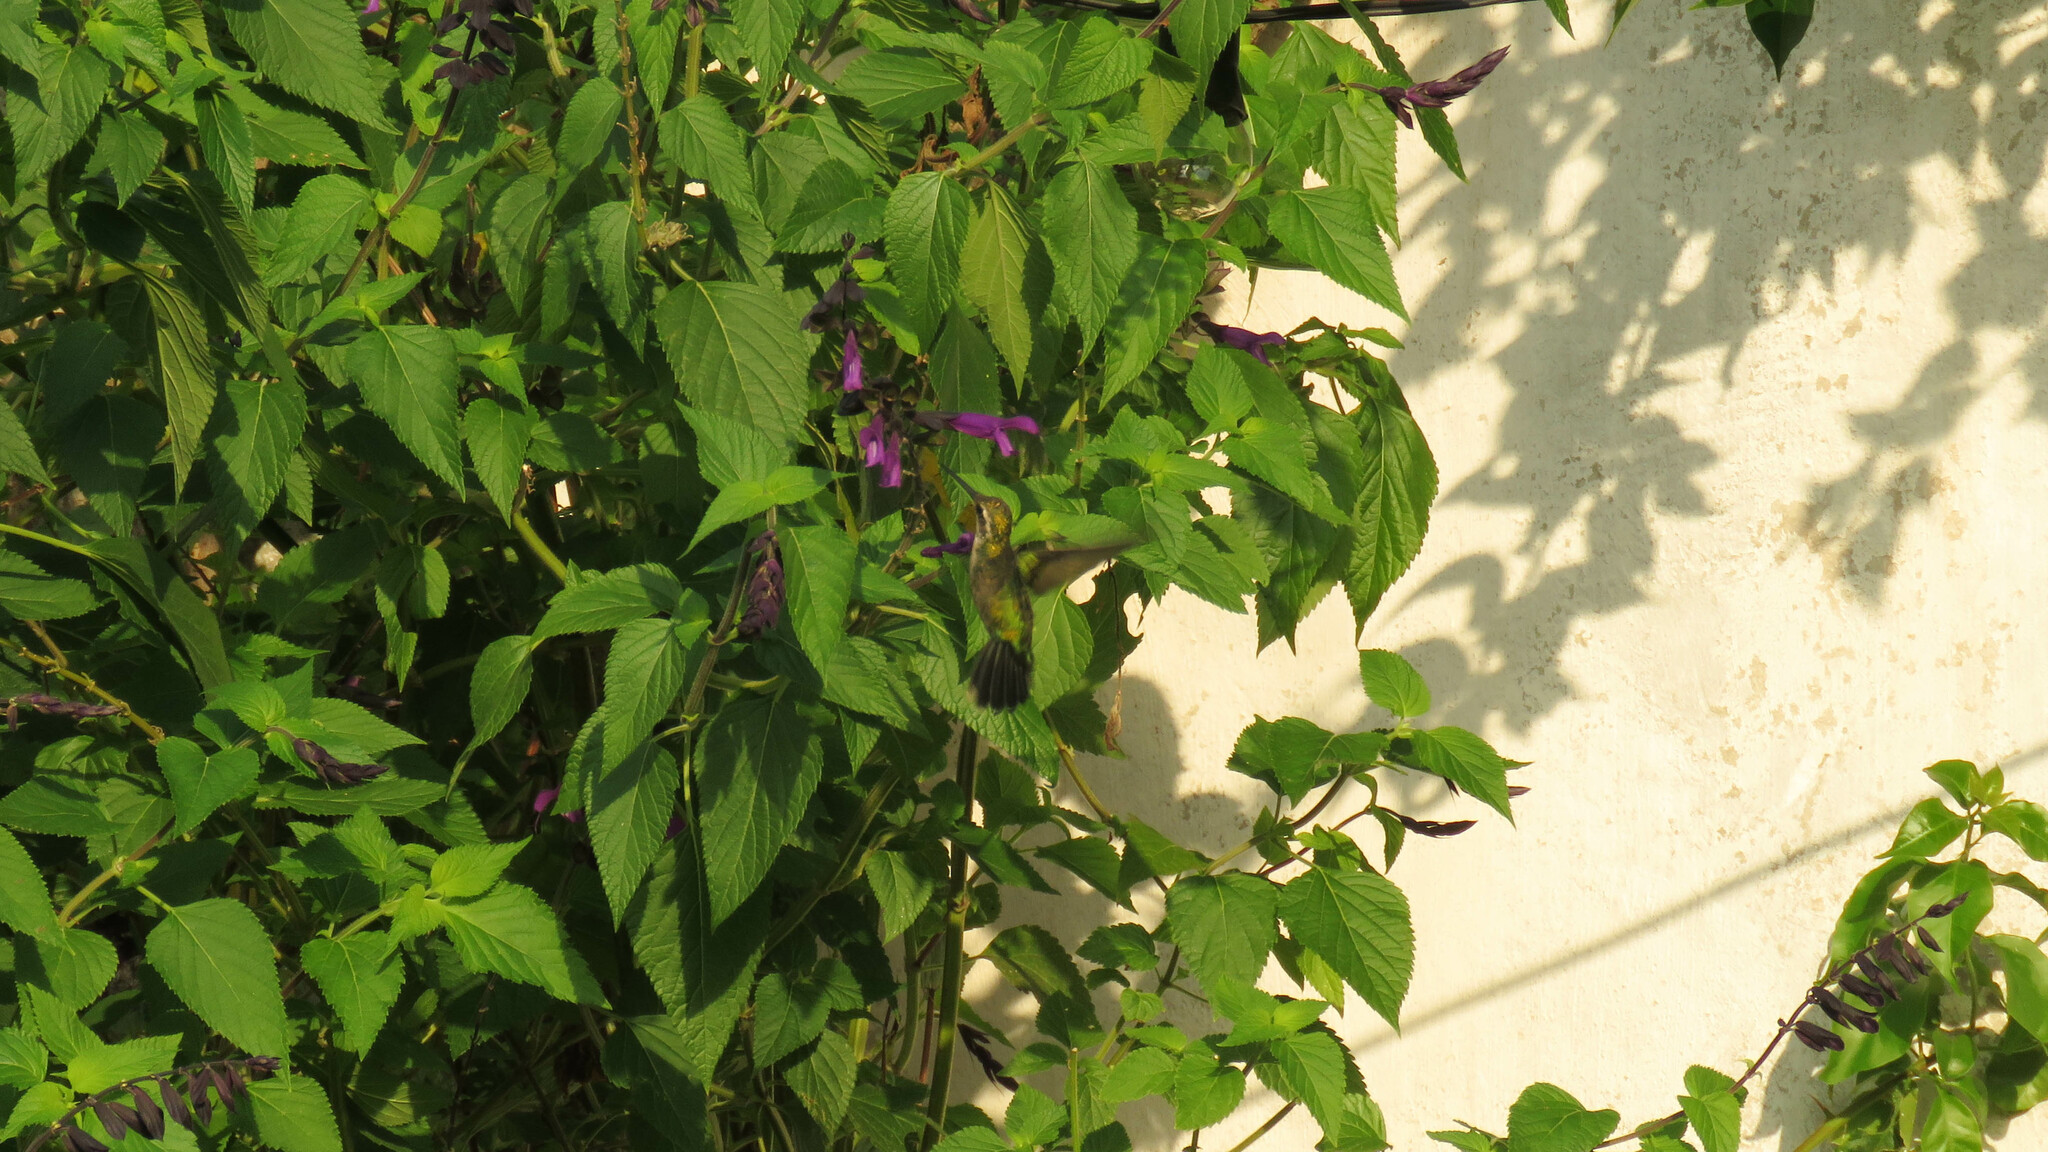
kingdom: Animalia
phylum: Chordata
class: Aves
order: Apodiformes
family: Trochilidae
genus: Chlorostilbon
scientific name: Chlorostilbon lucidus
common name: Glittering-bellied emerald
